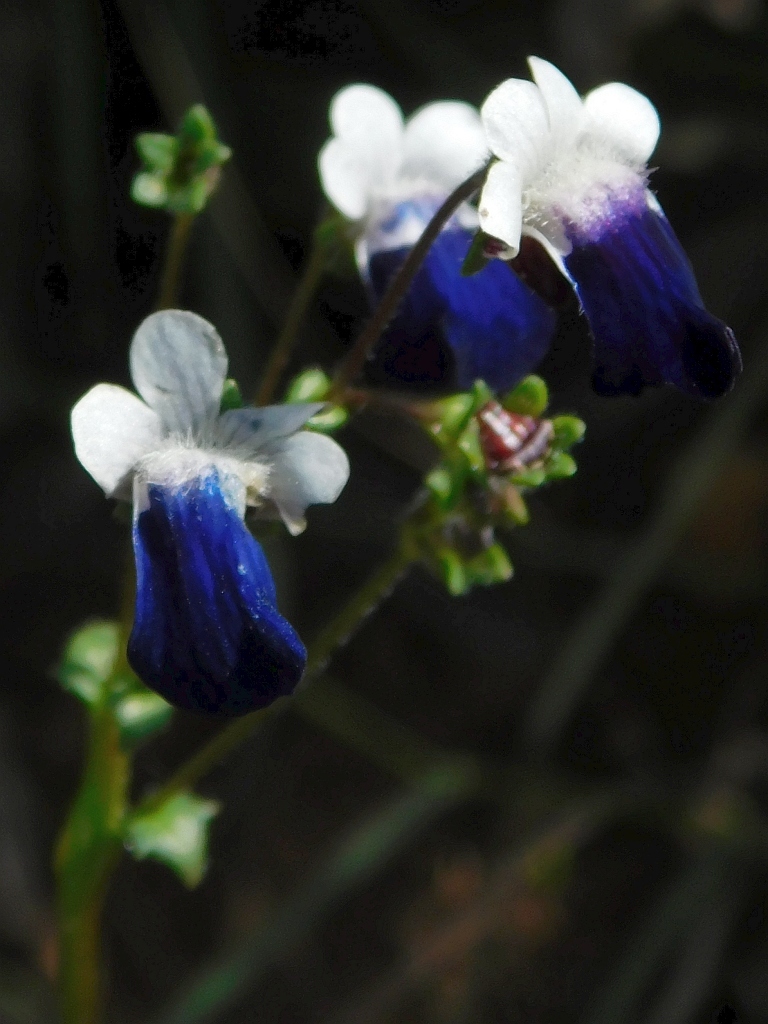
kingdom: Plantae
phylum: Tracheophyta
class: Magnoliopsida
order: Lamiales
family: Scrophulariaceae
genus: Nemesia
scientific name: Nemesia barbata
